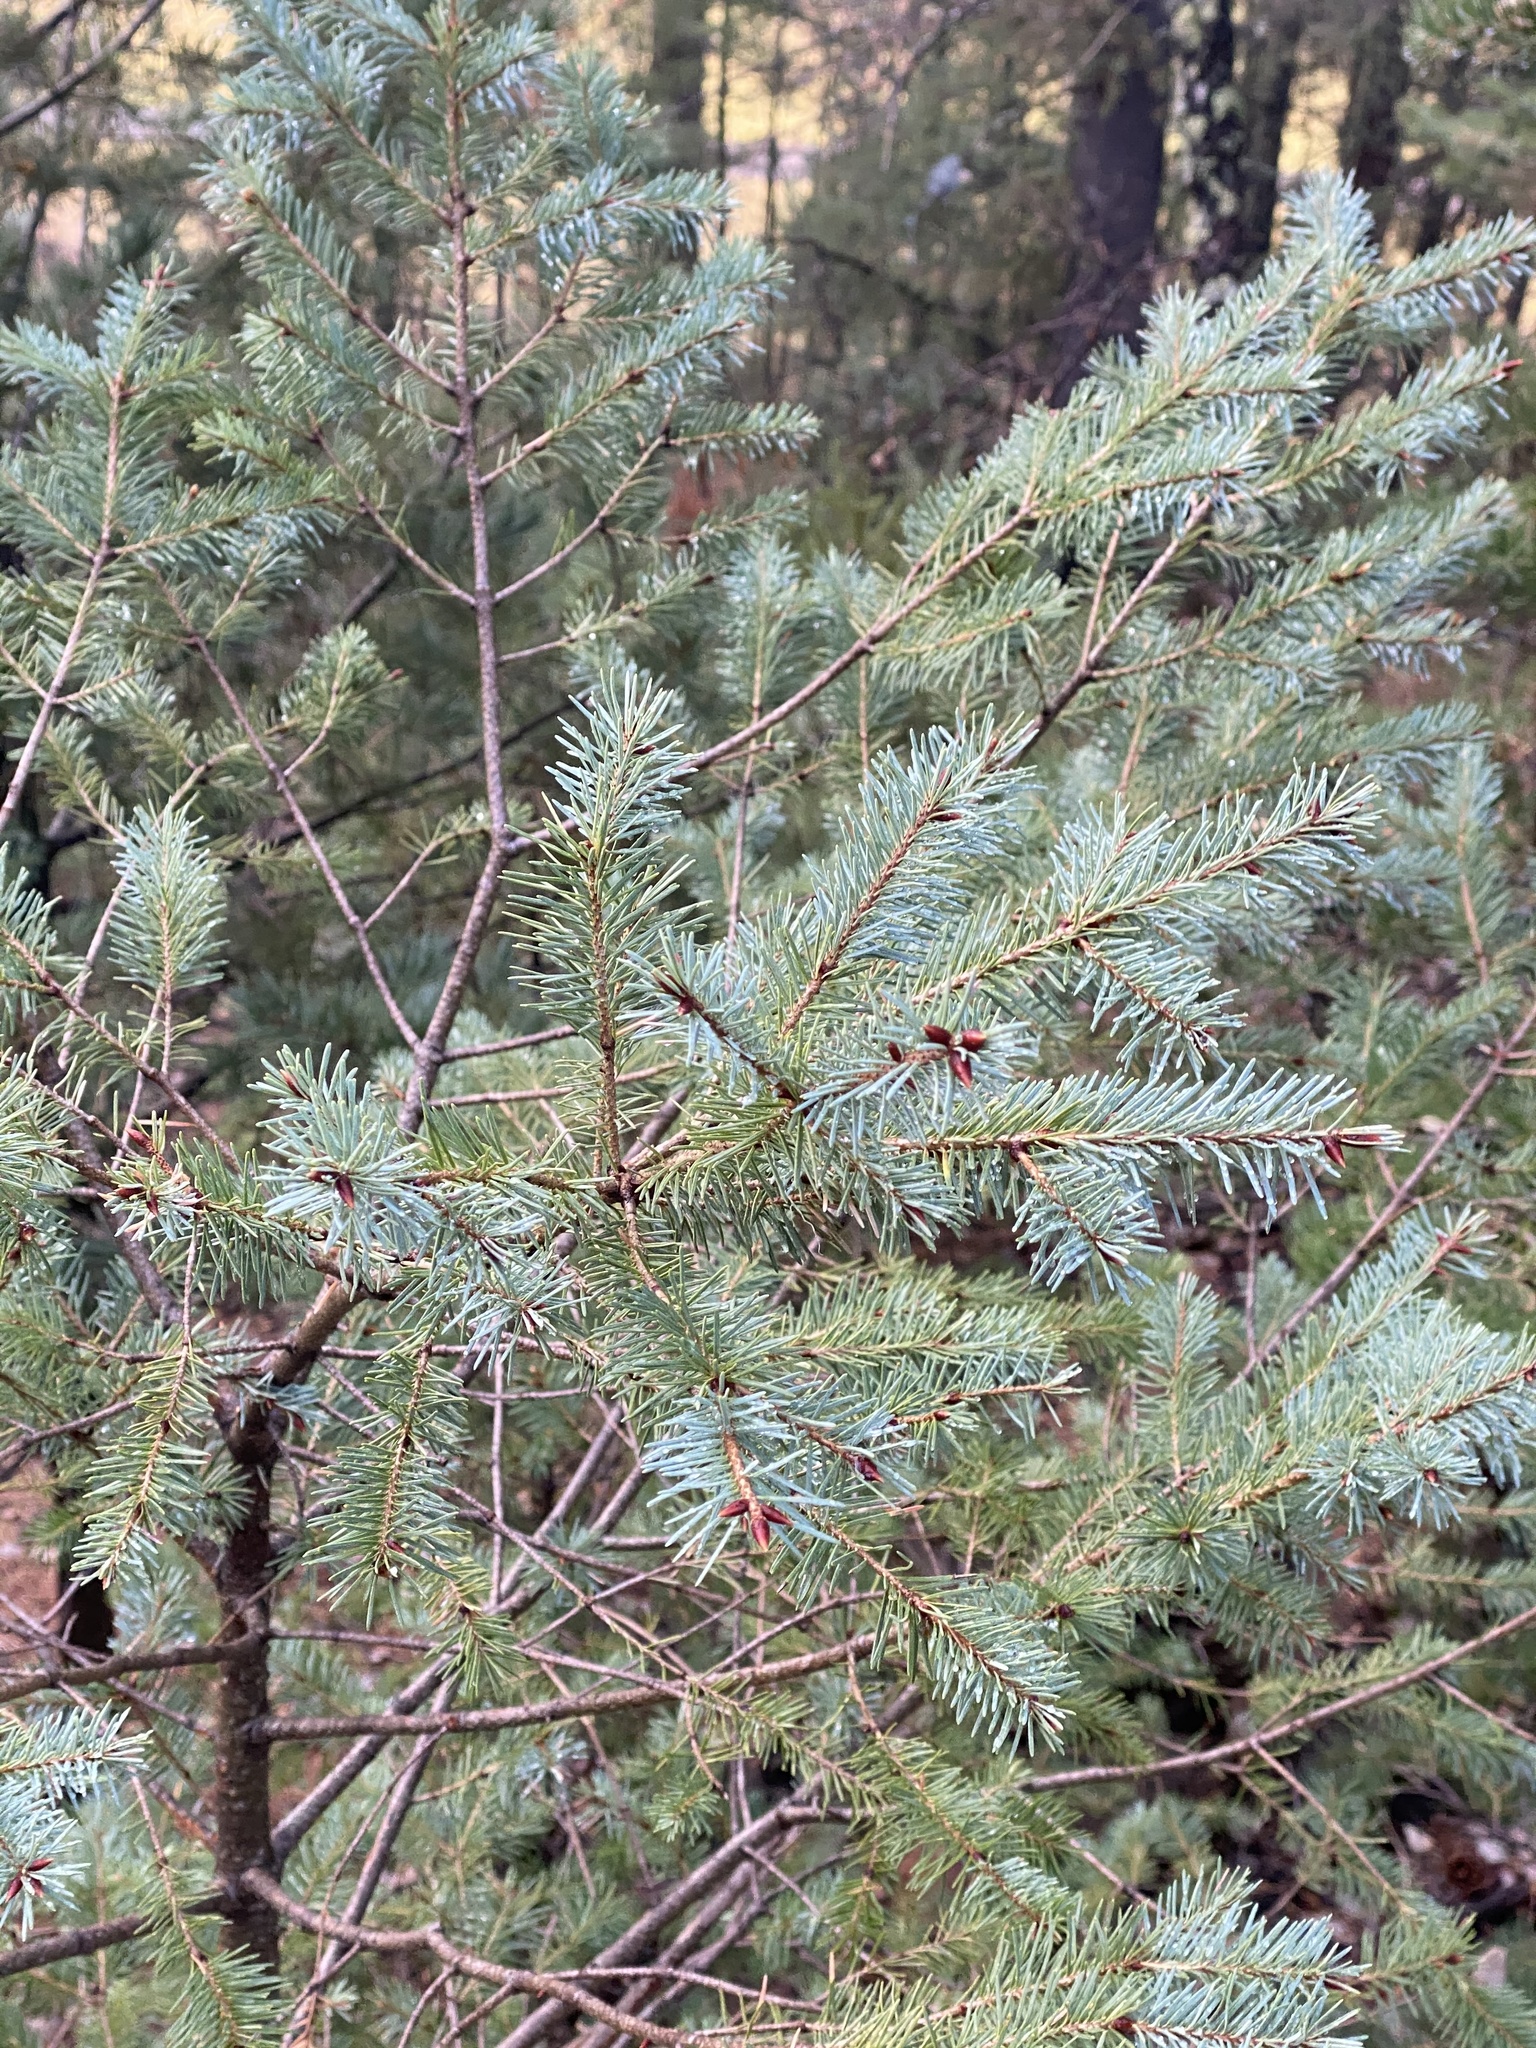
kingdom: Plantae
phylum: Tracheophyta
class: Pinopsida
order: Pinales
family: Pinaceae
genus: Pseudotsuga
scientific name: Pseudotsuga menziesii
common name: Douglas fir
